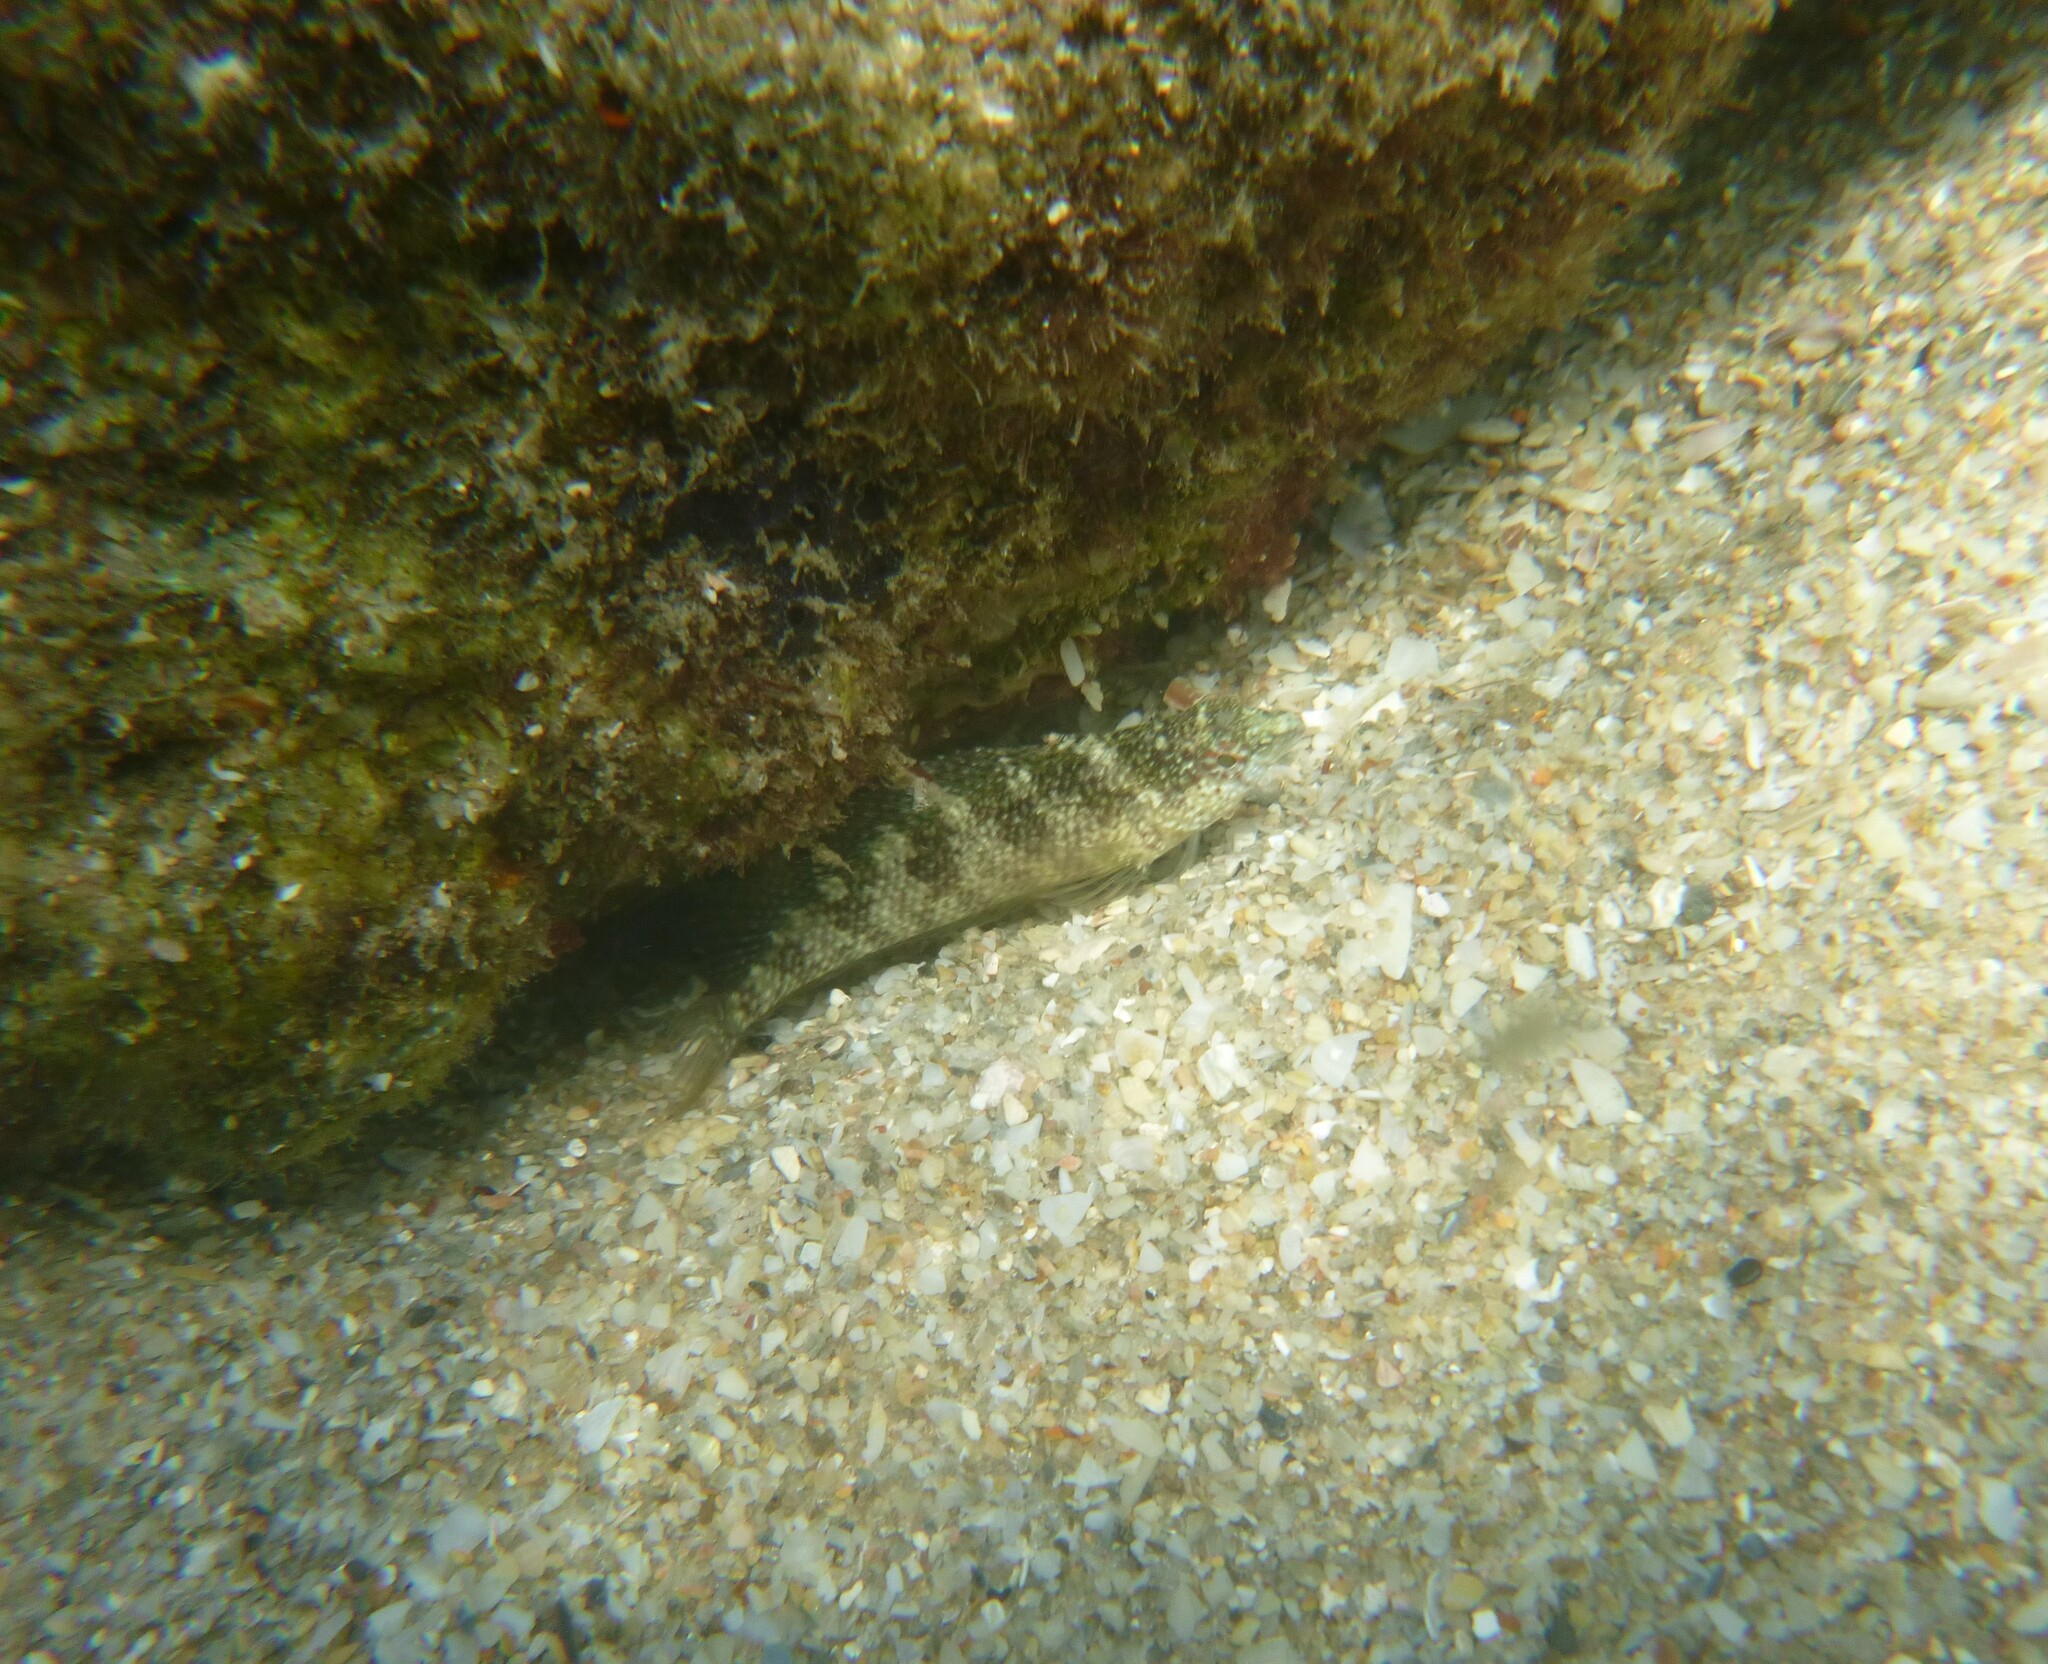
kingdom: Animalia
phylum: Chordata
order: Perciformes
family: Labrisomidae
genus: Malacoctenus
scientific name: Malacoctenus macropus
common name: Rosy blenny
